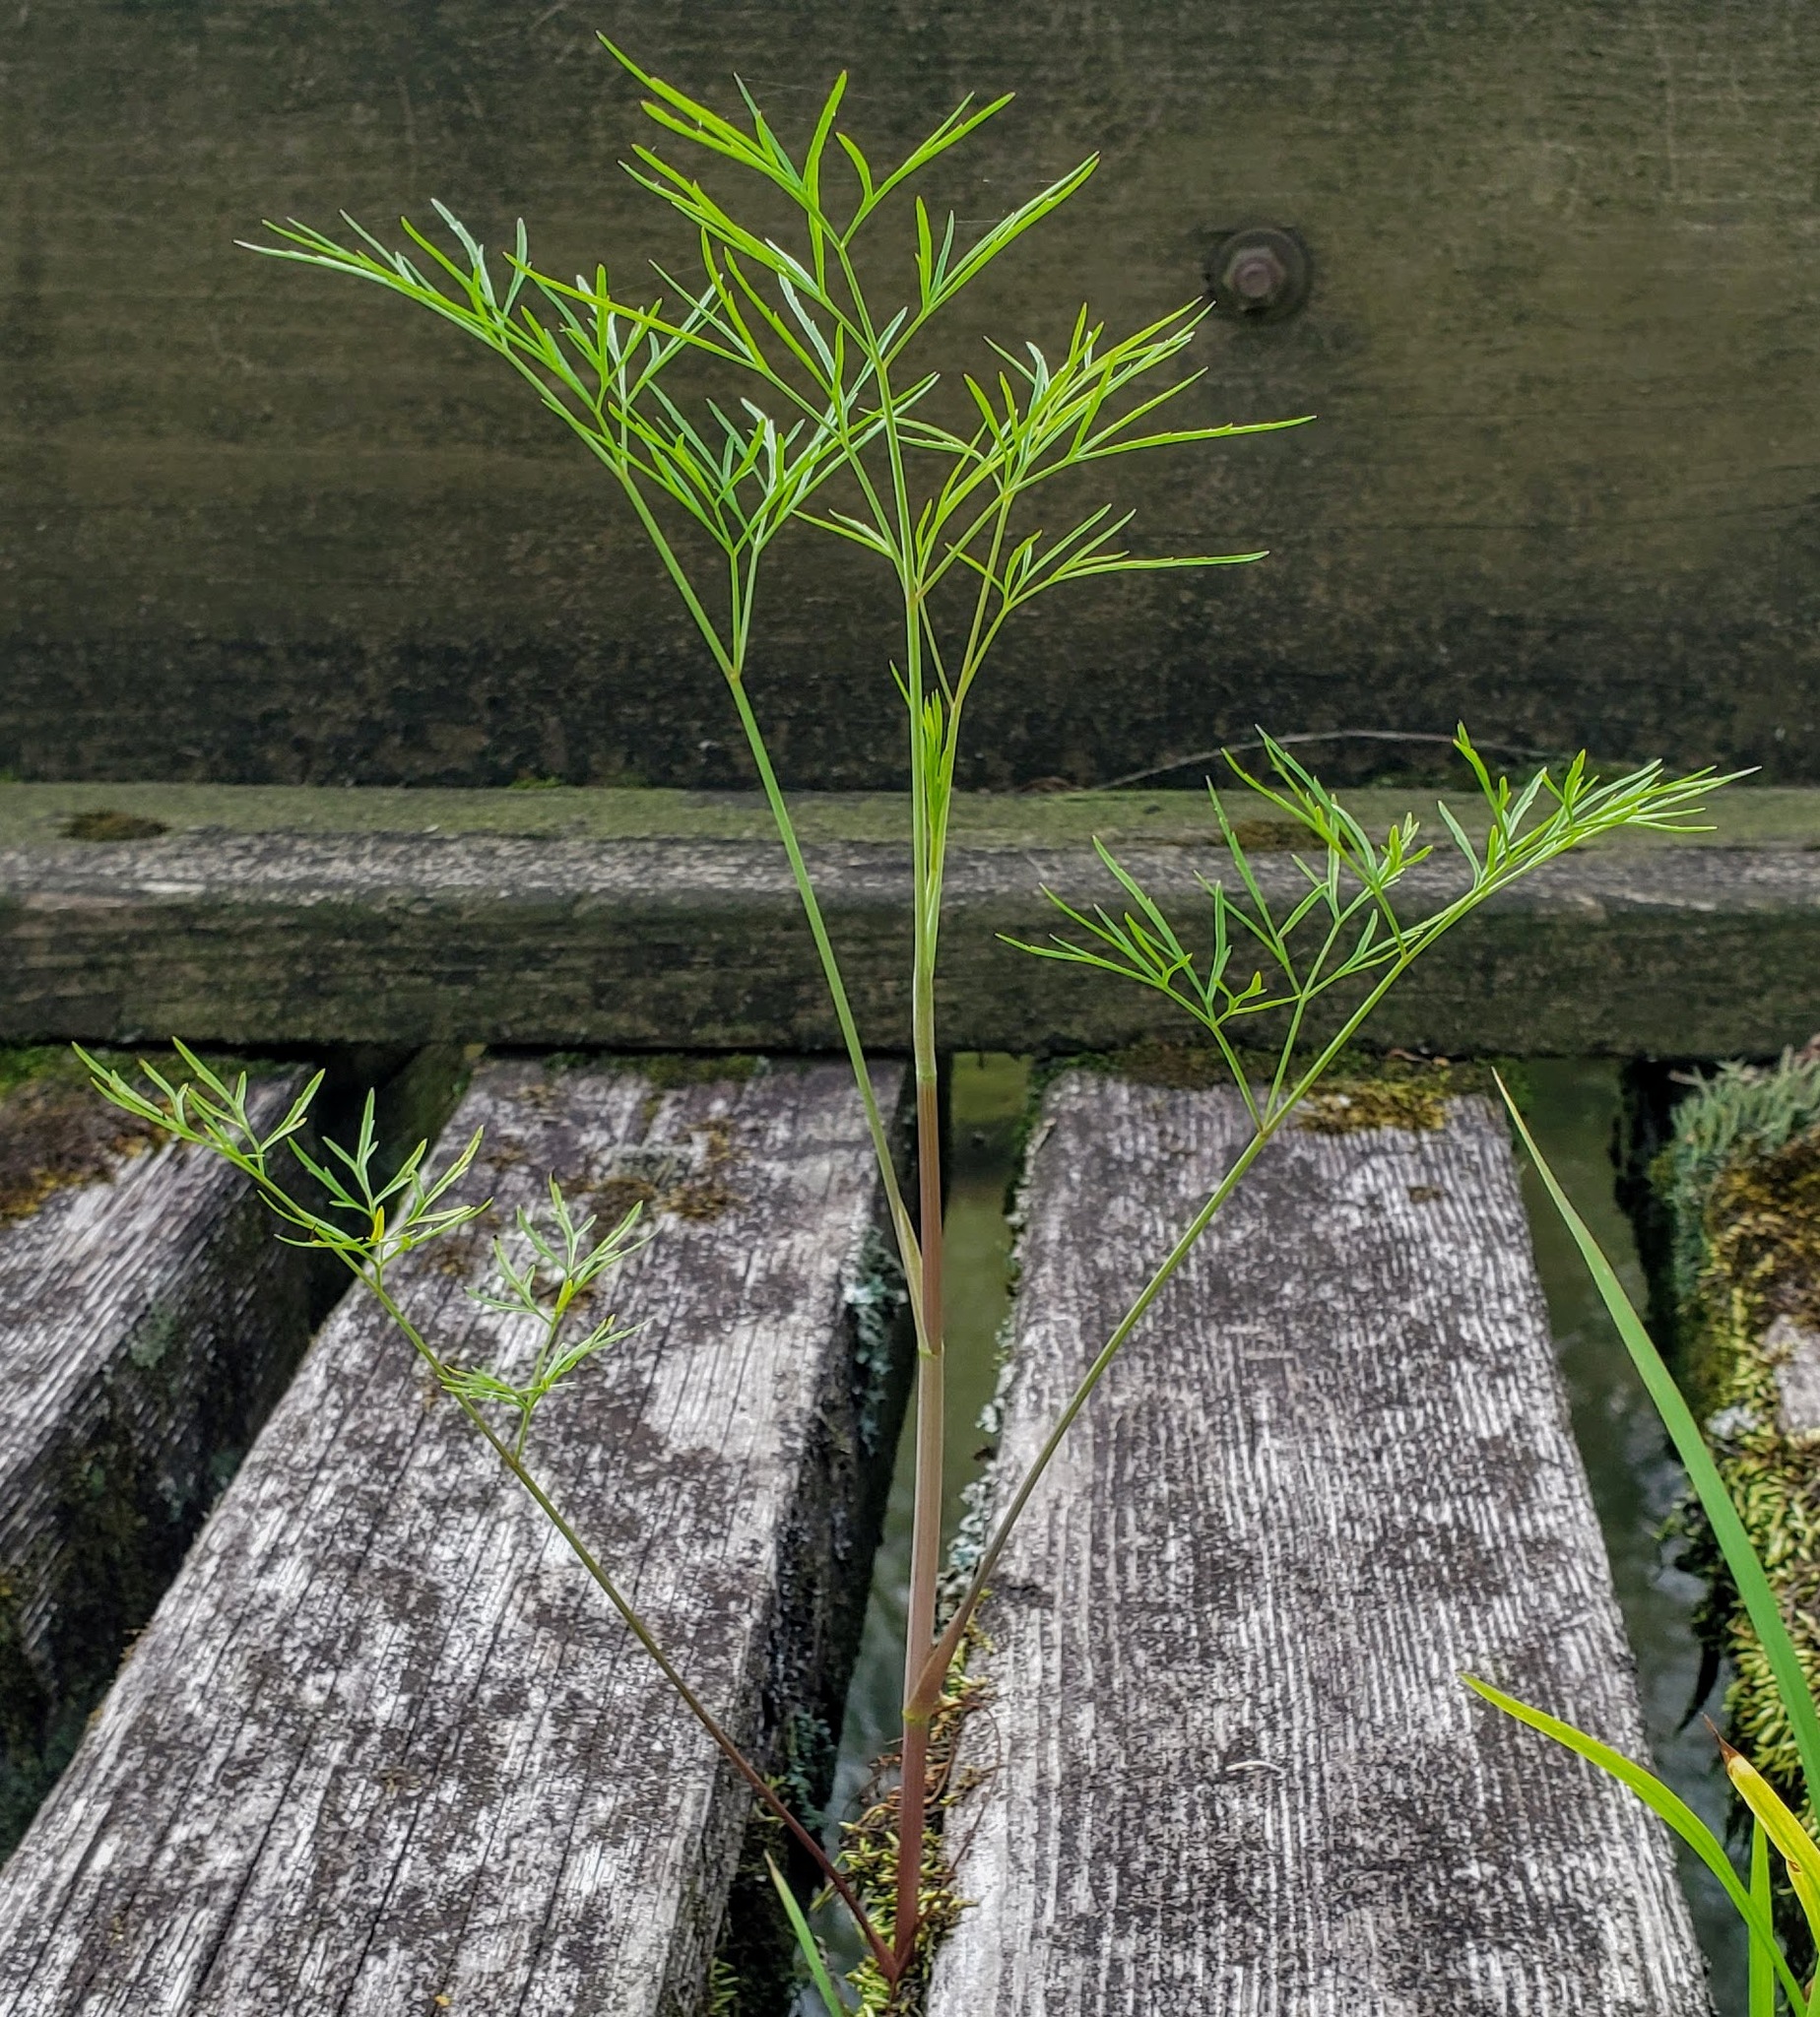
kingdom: Plantae
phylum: Tracheophyta
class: Magnoliopsida
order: Apiales
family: Apiaceae
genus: Cicuta
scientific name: Cicuta bulbifera
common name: Bulb-bearing water-hemlock
